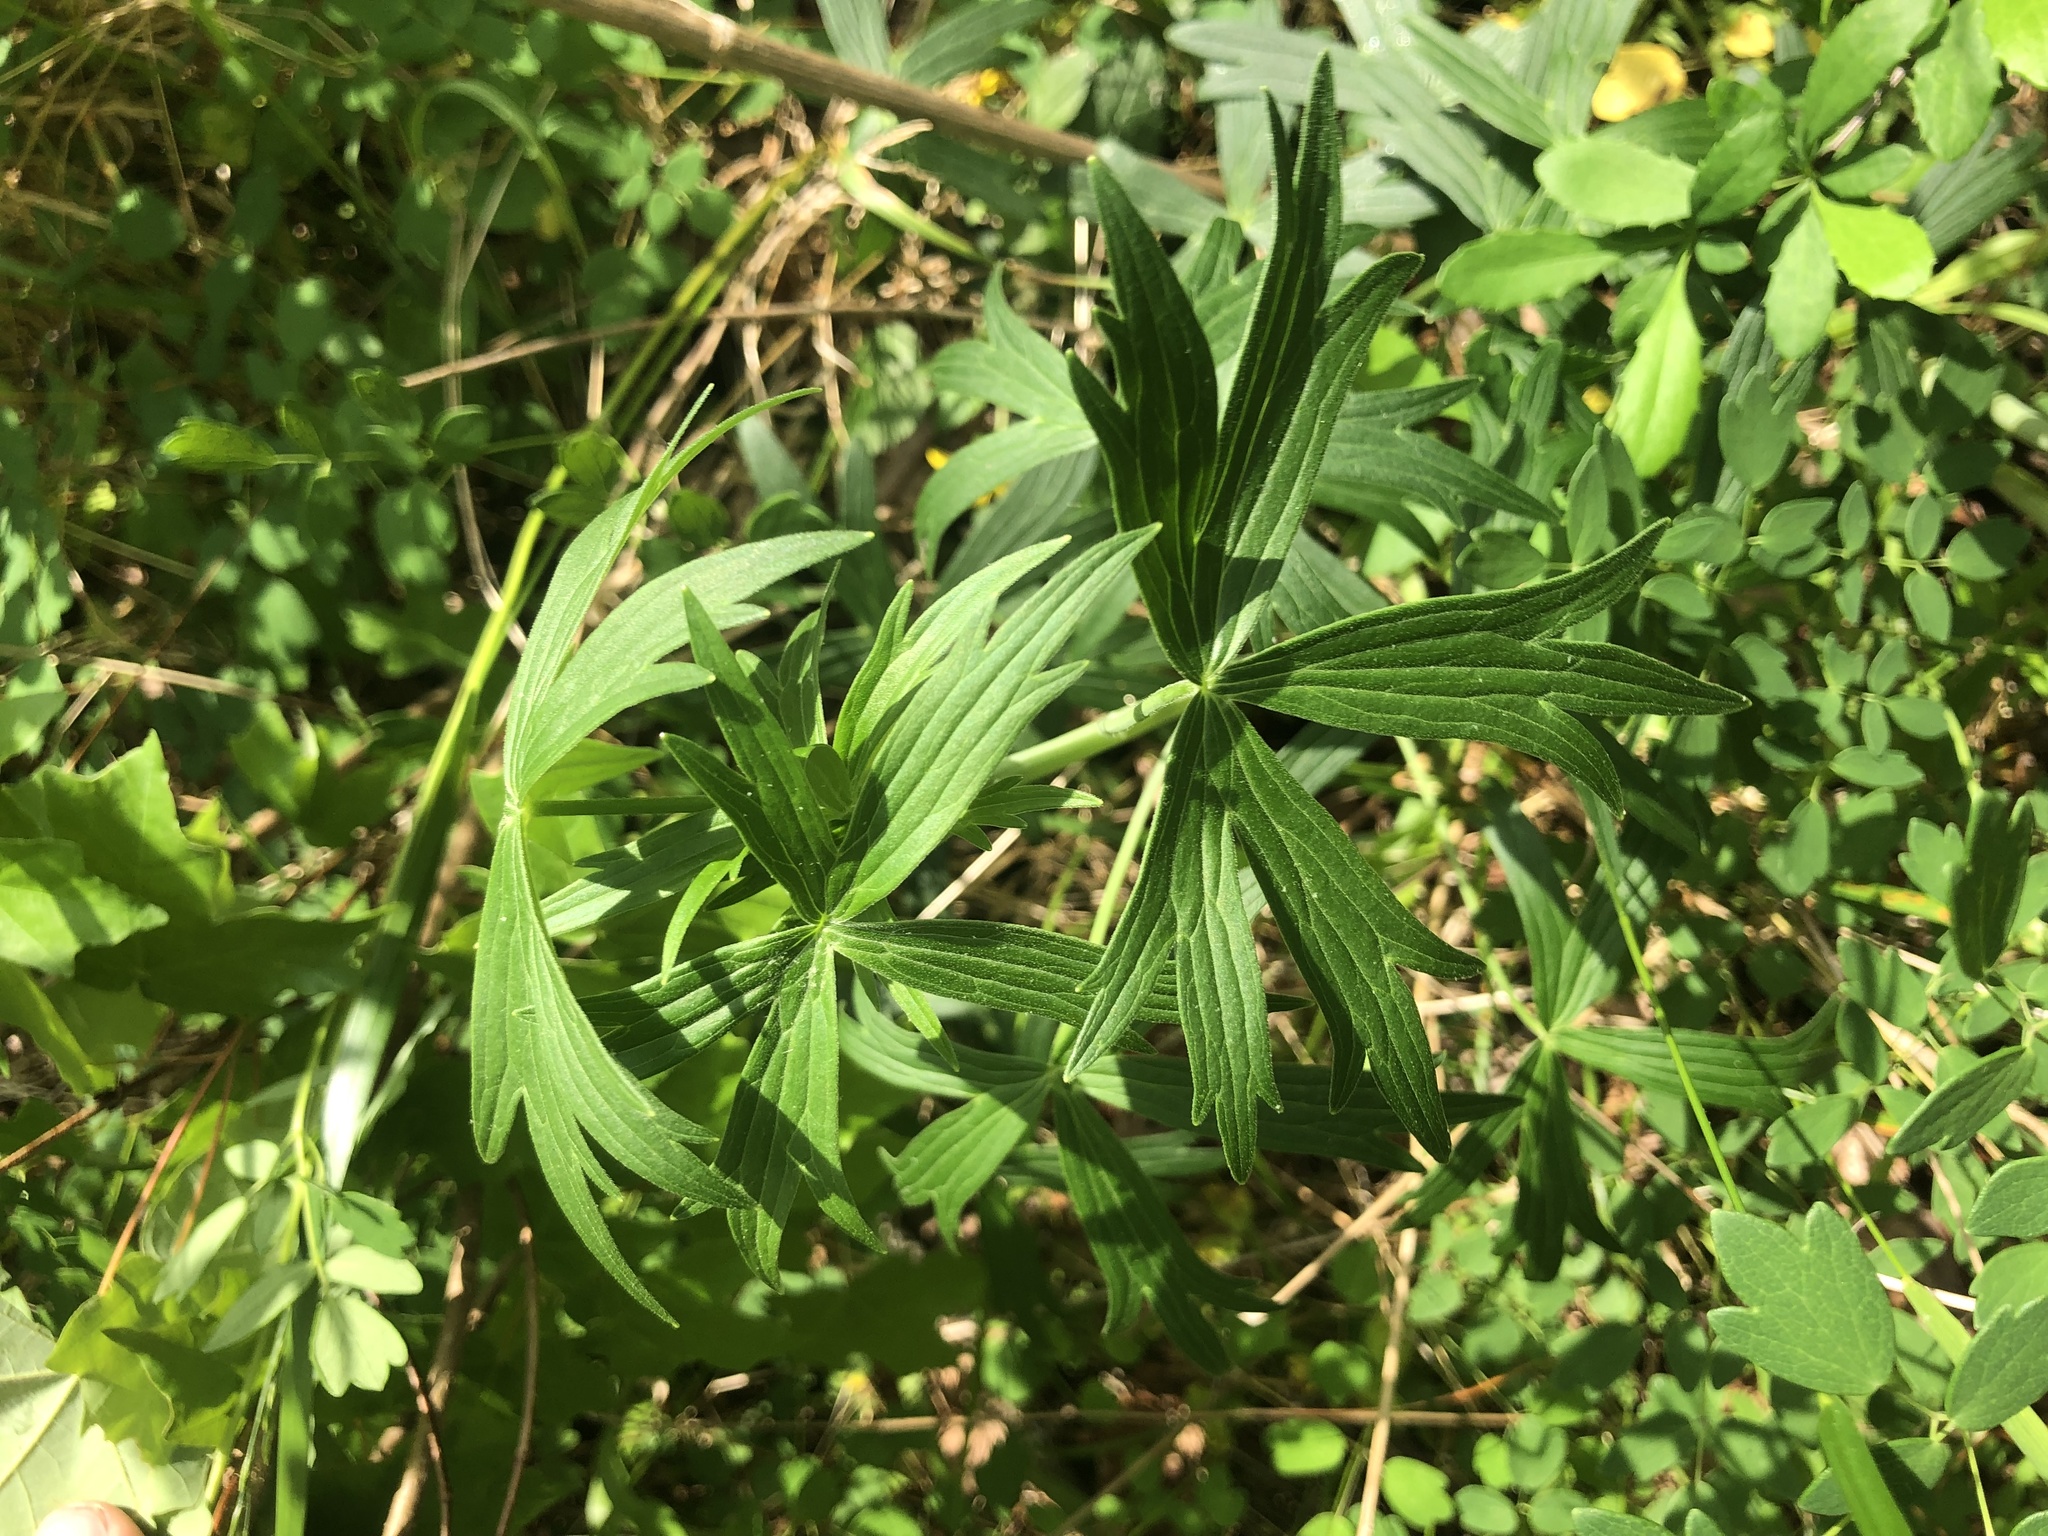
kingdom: Plantae
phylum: Tracheophyta
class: Magnoliopsida
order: Ranunculales
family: Ranunculaceae
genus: Delphinium
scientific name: Delphinium exaltatum
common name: Tall larkspur
